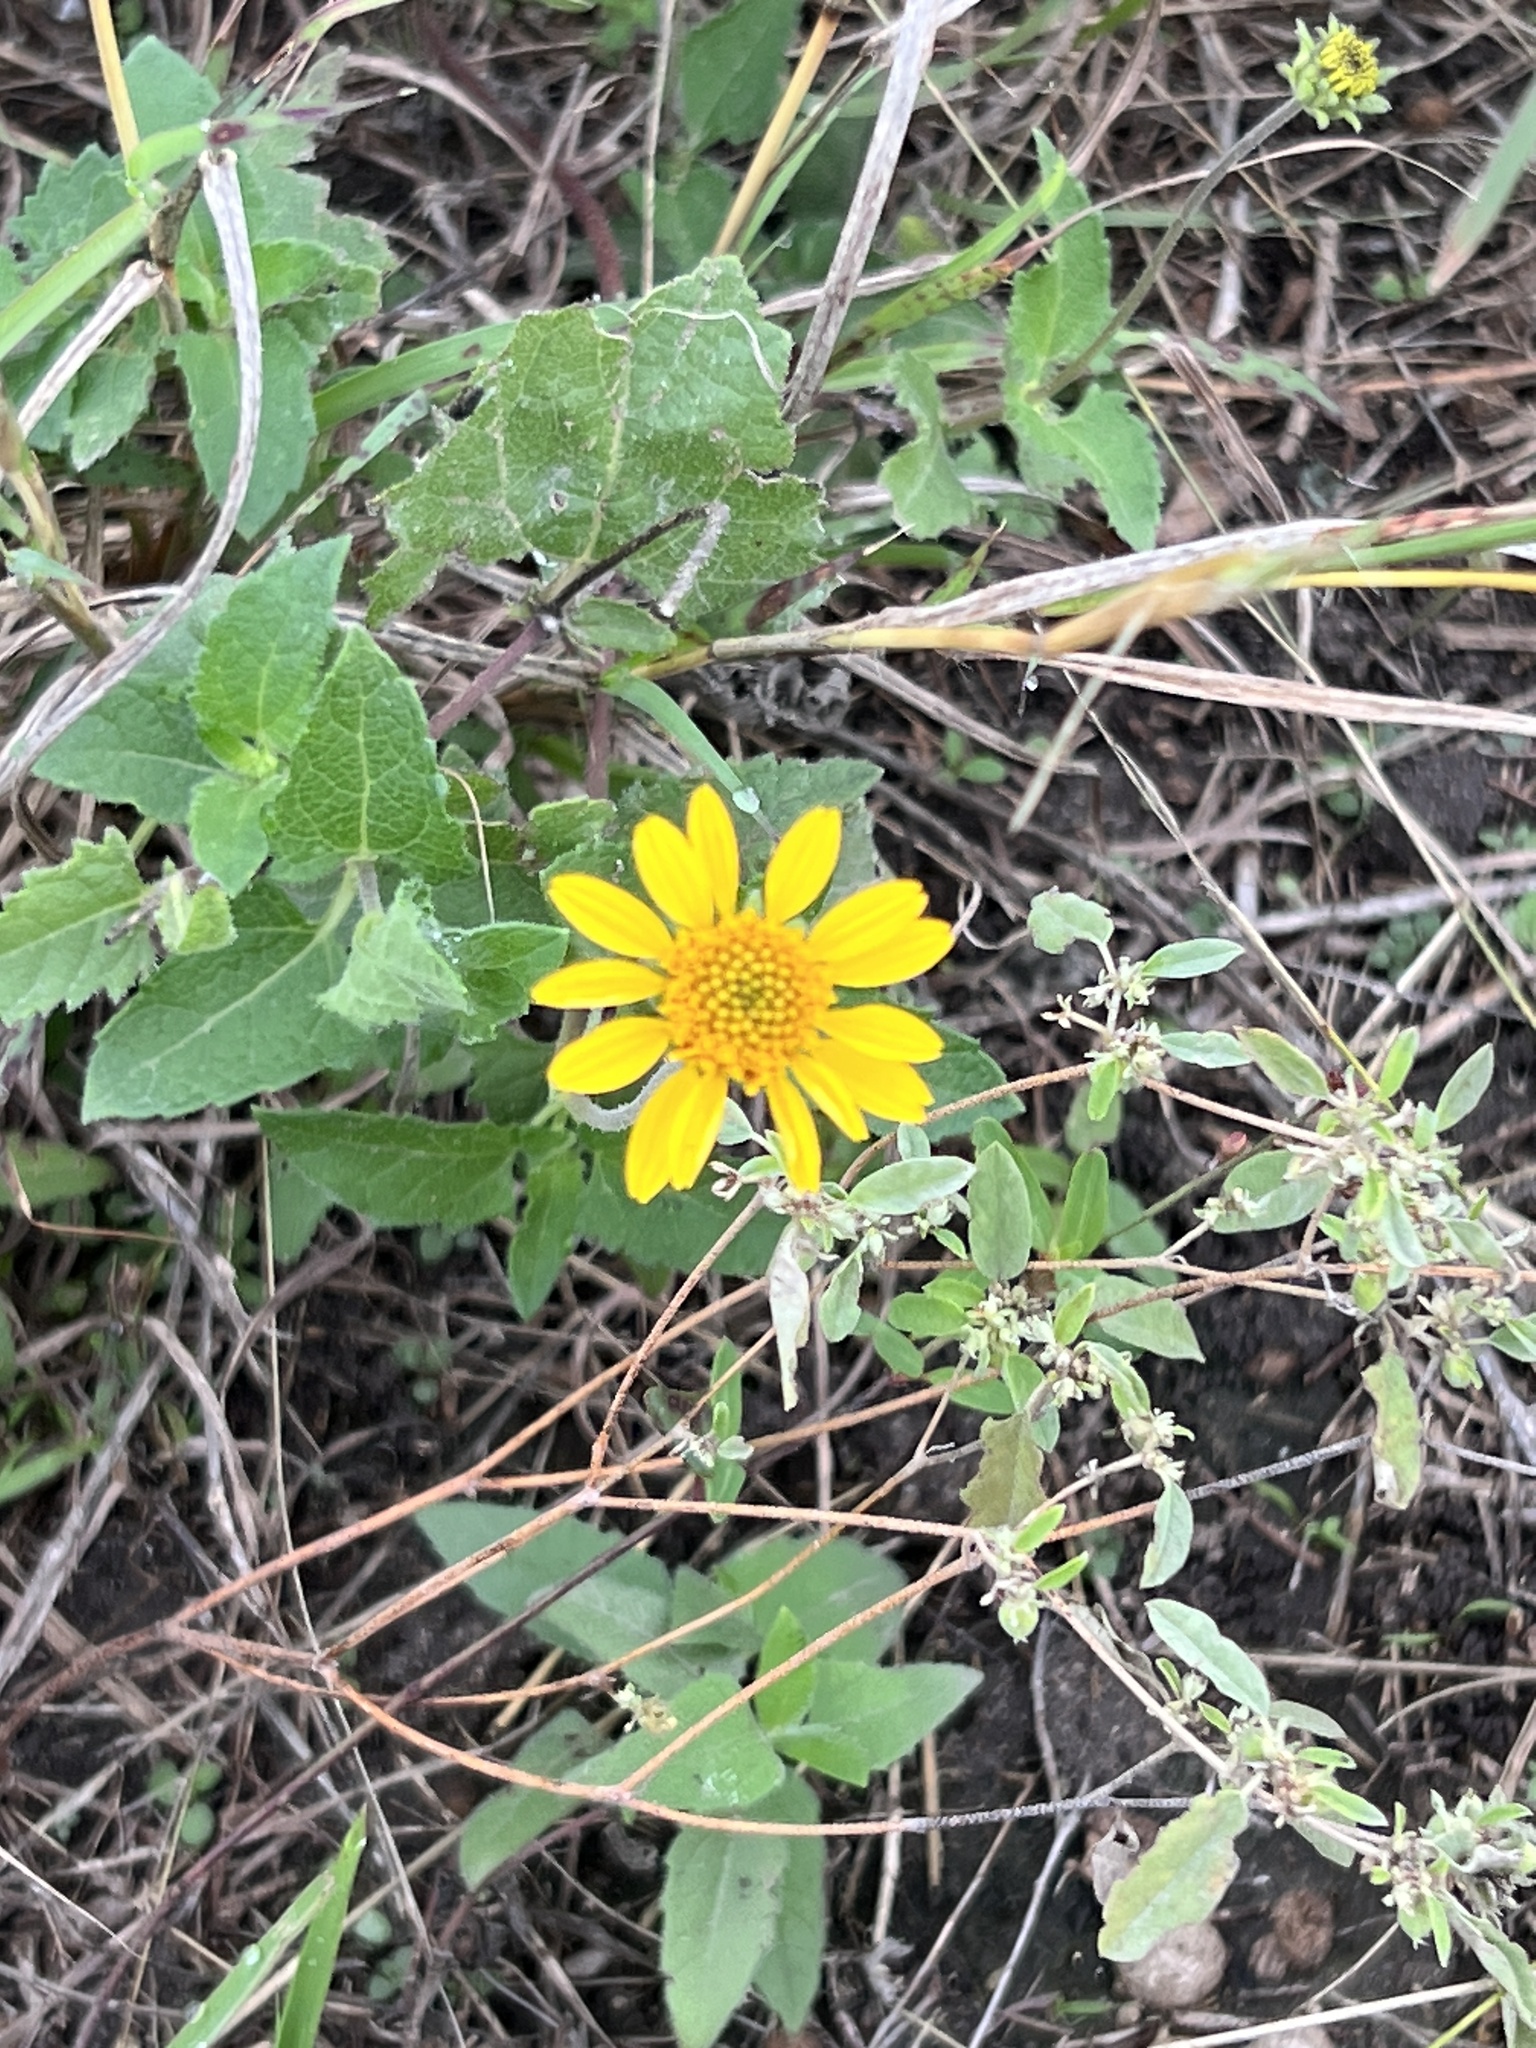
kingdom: Plantae
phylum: Tracheophyta
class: Magnoliopsida
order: Asterales
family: Asteraceae
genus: Simsia
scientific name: Simsia calva
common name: Awnless bush-sunflower
